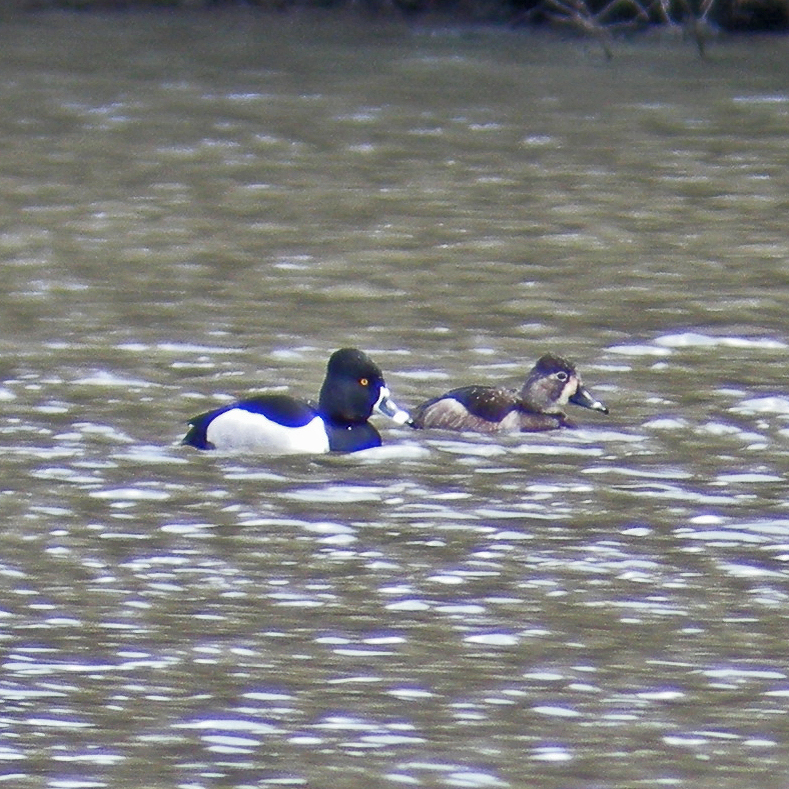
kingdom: Animalia
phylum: Chordata
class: Aves
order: Anseriformes
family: Anatidae
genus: Aythya
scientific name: Aythya collaris
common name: Ring-necked duck
